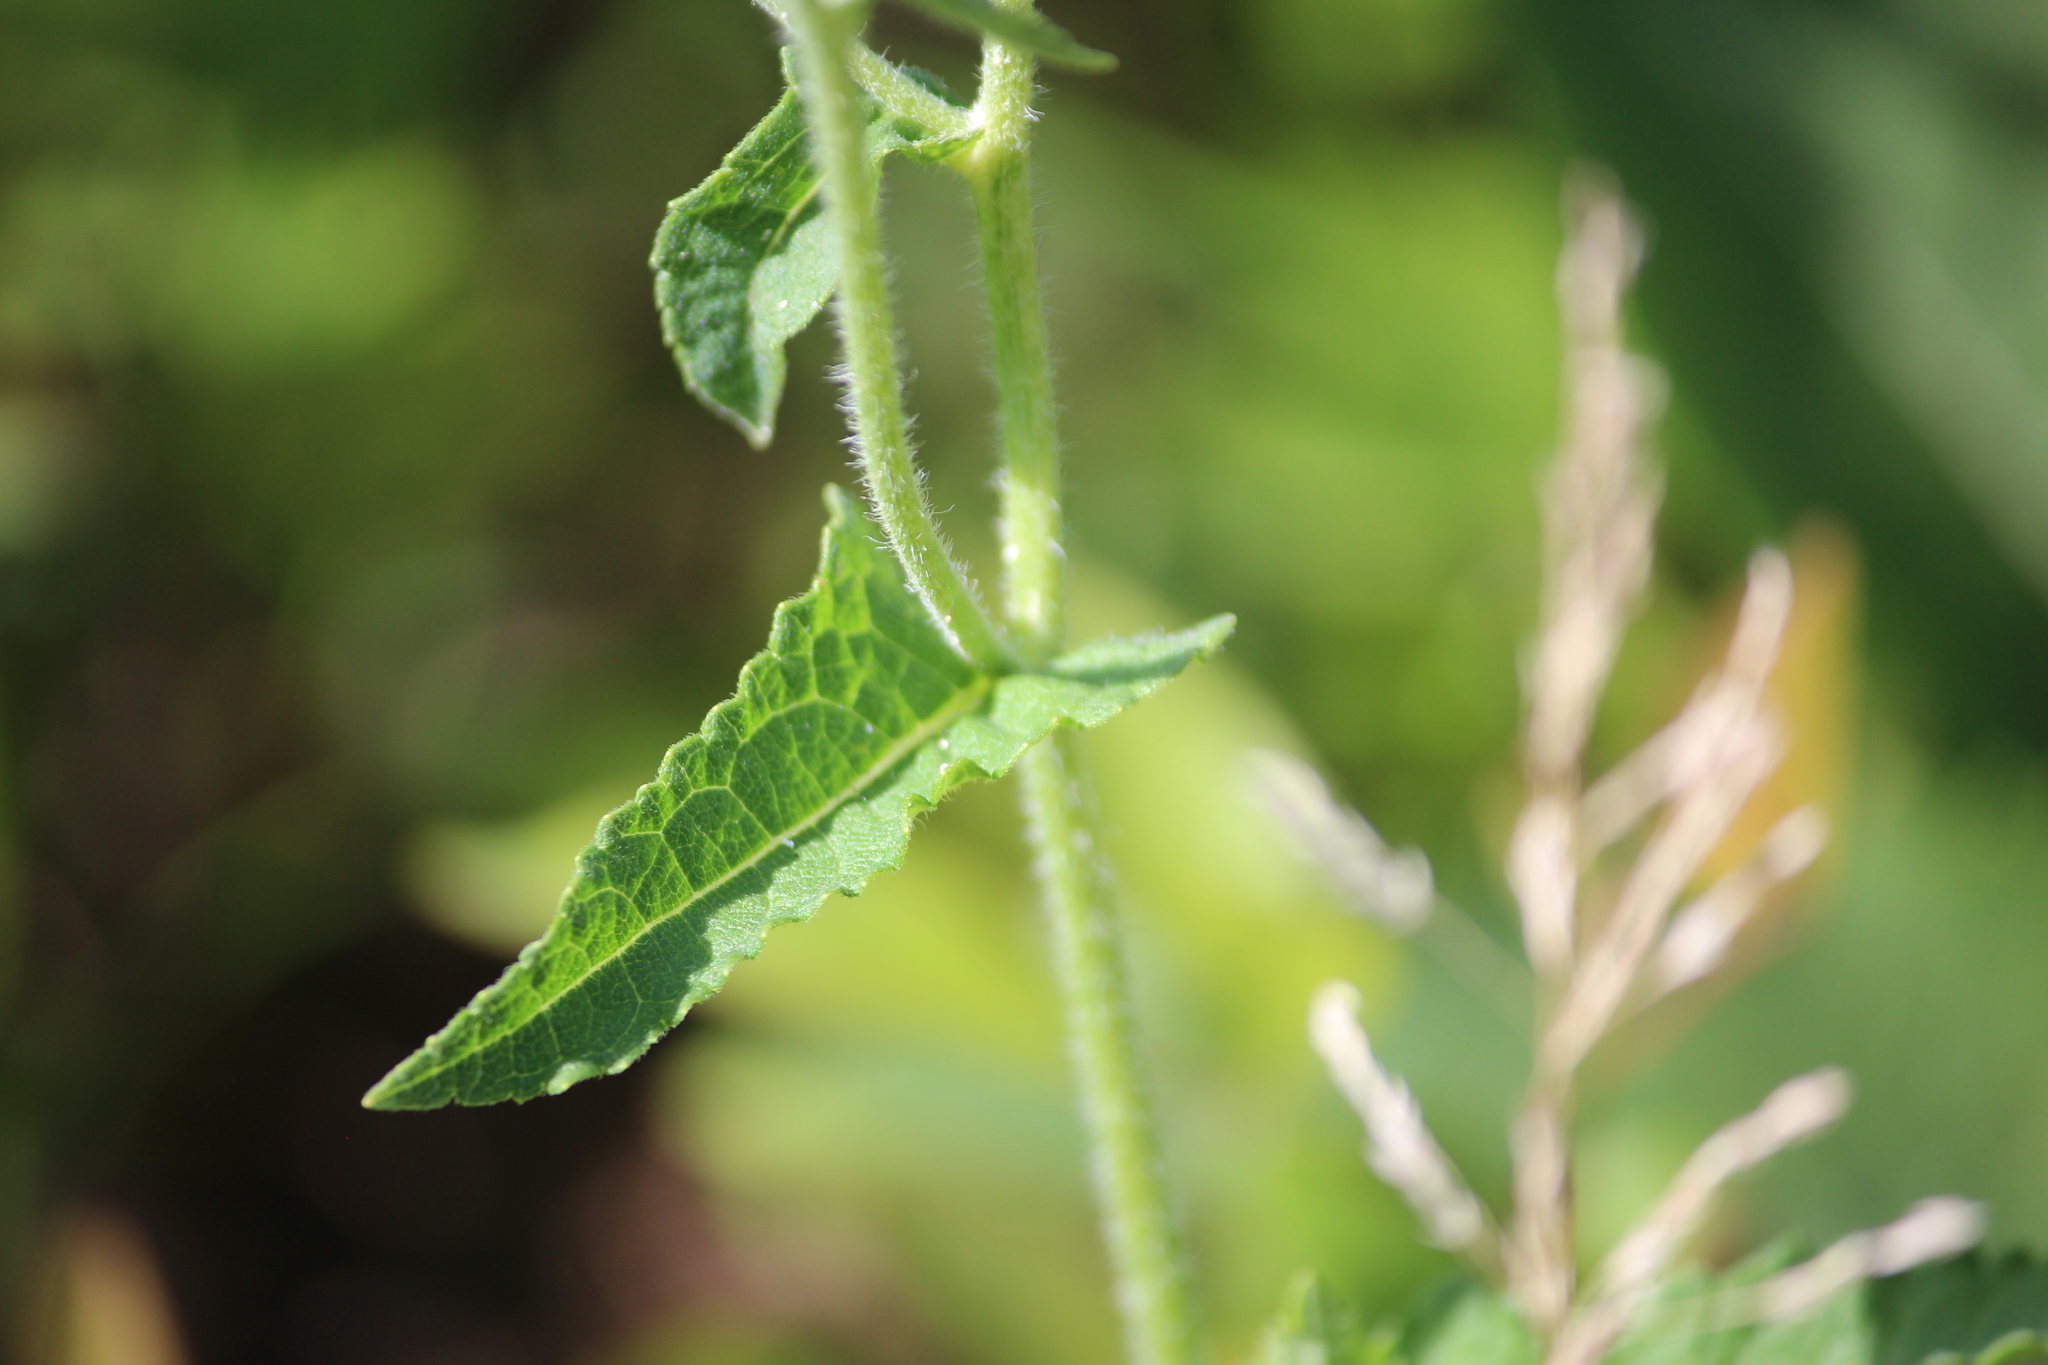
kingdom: Plantae
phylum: Tracheophyta
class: Magnoliopsida
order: Asterales
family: Asteraceae
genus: Parthenium
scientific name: Parthenium auriculatum
